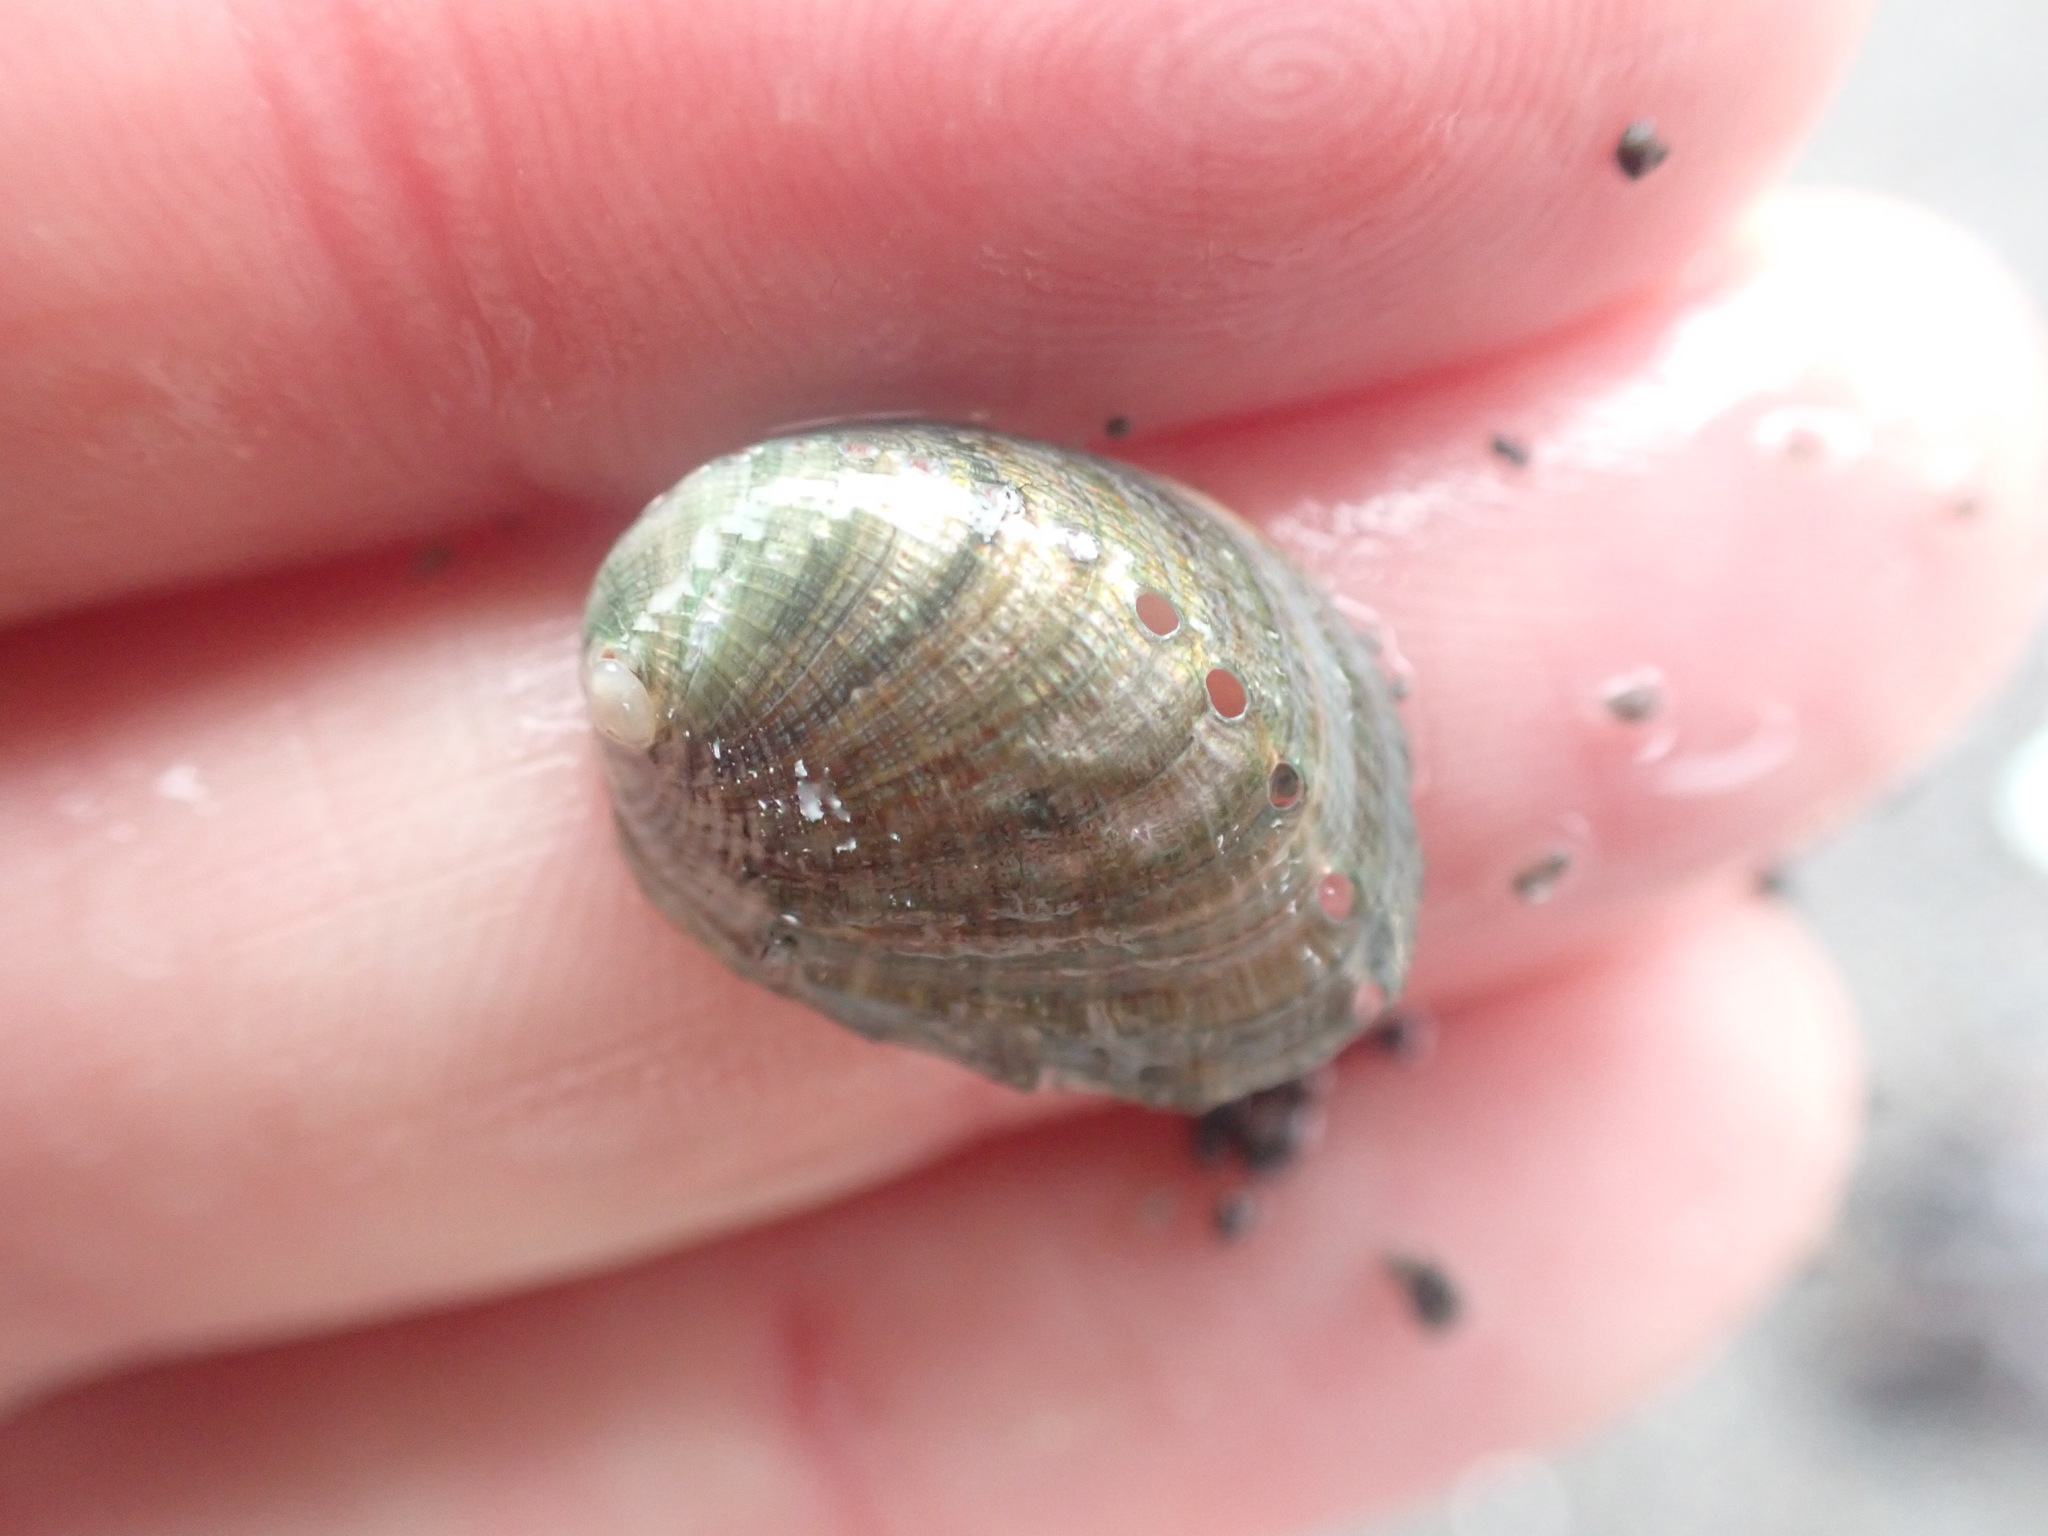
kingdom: Animalia
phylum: Mollusca
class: Gastropoda
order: Lepetellida
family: Haliotidae
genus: Haliotis
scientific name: Haliotis iris
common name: Abalone
